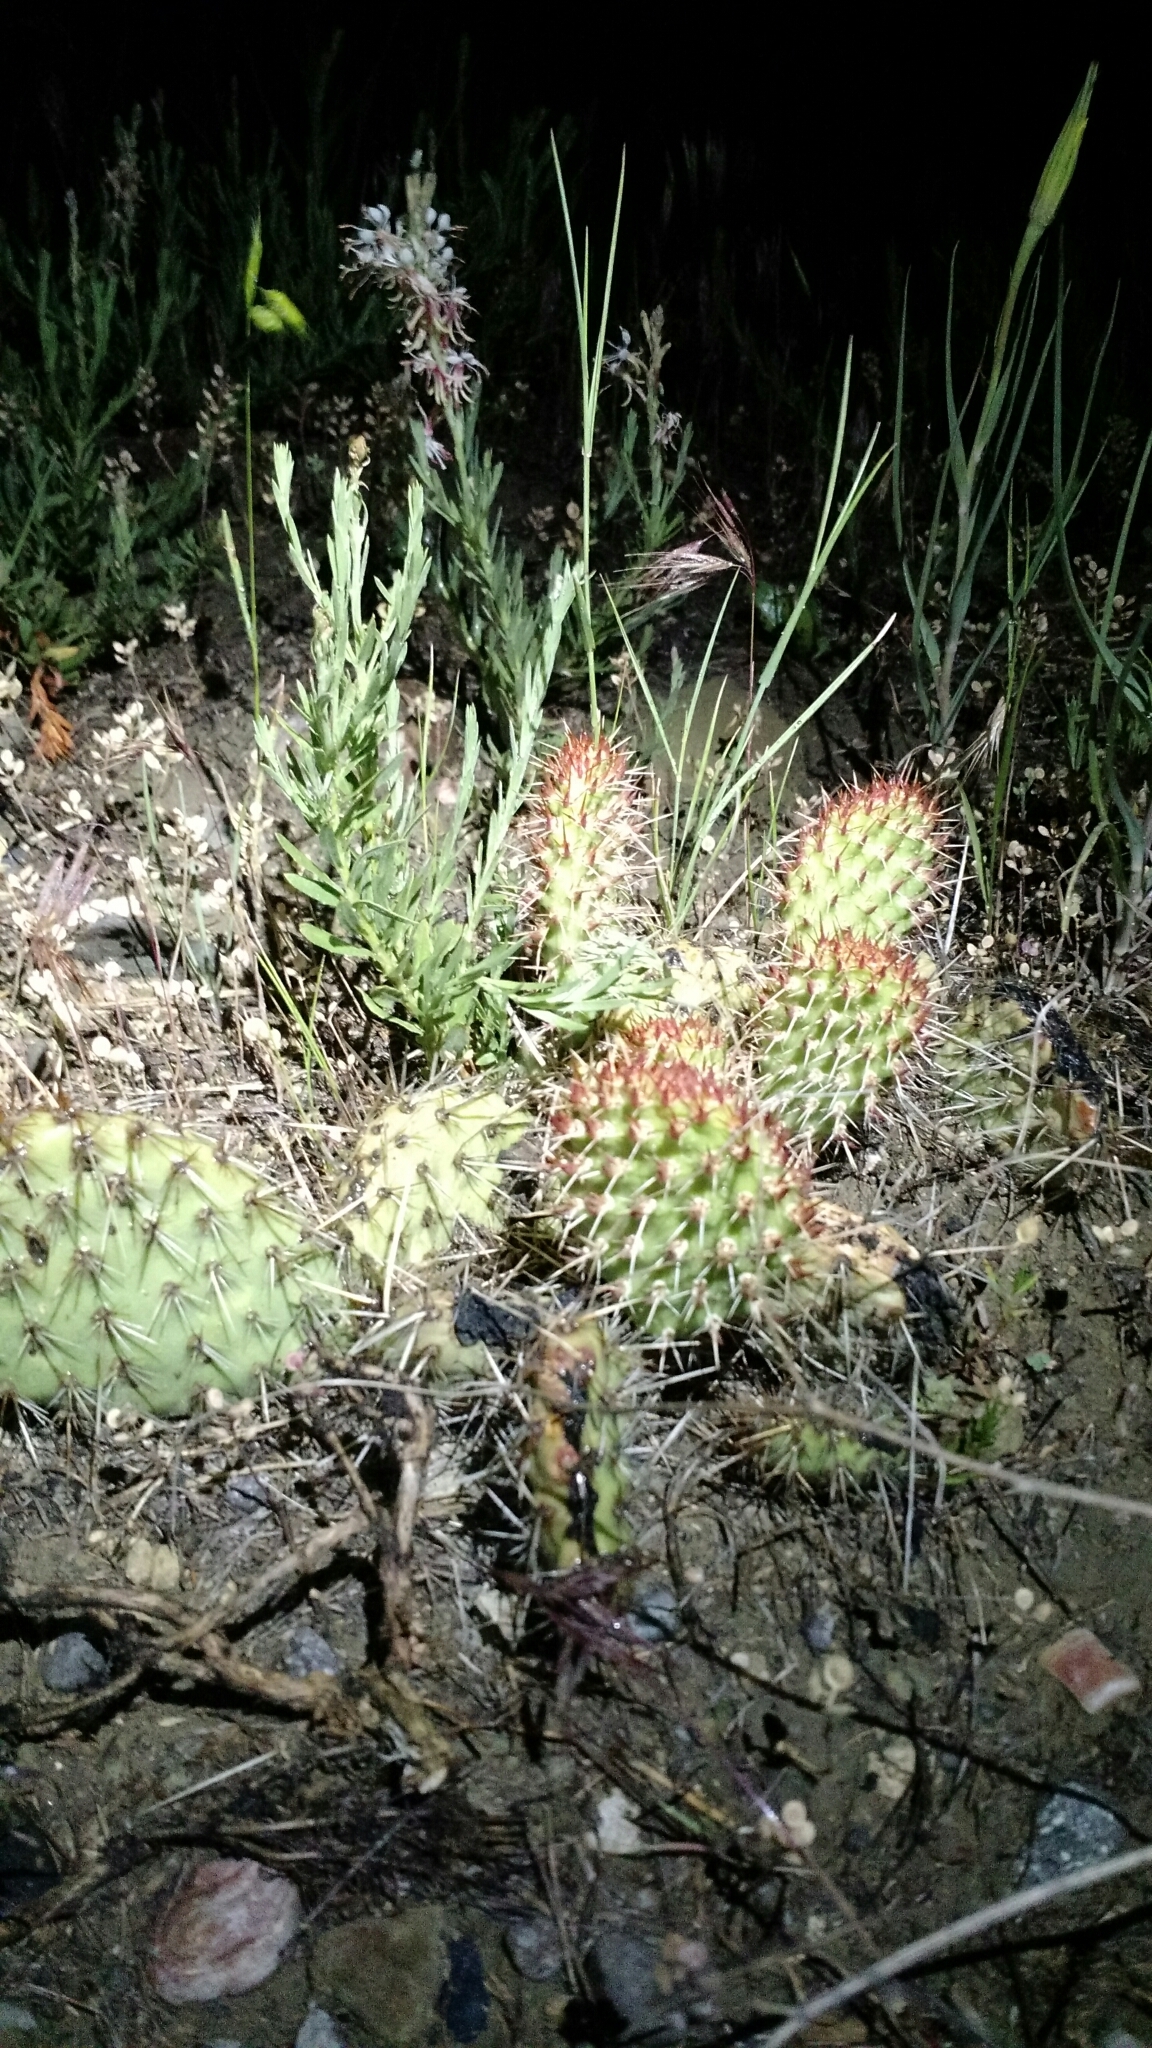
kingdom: Plantae
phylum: Tracheophyta
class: Magnoliopsida
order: Caryophyllales
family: Cactaceae
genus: Opuntia
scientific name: Opuntia polyacantha
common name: Plains prickly-pear
